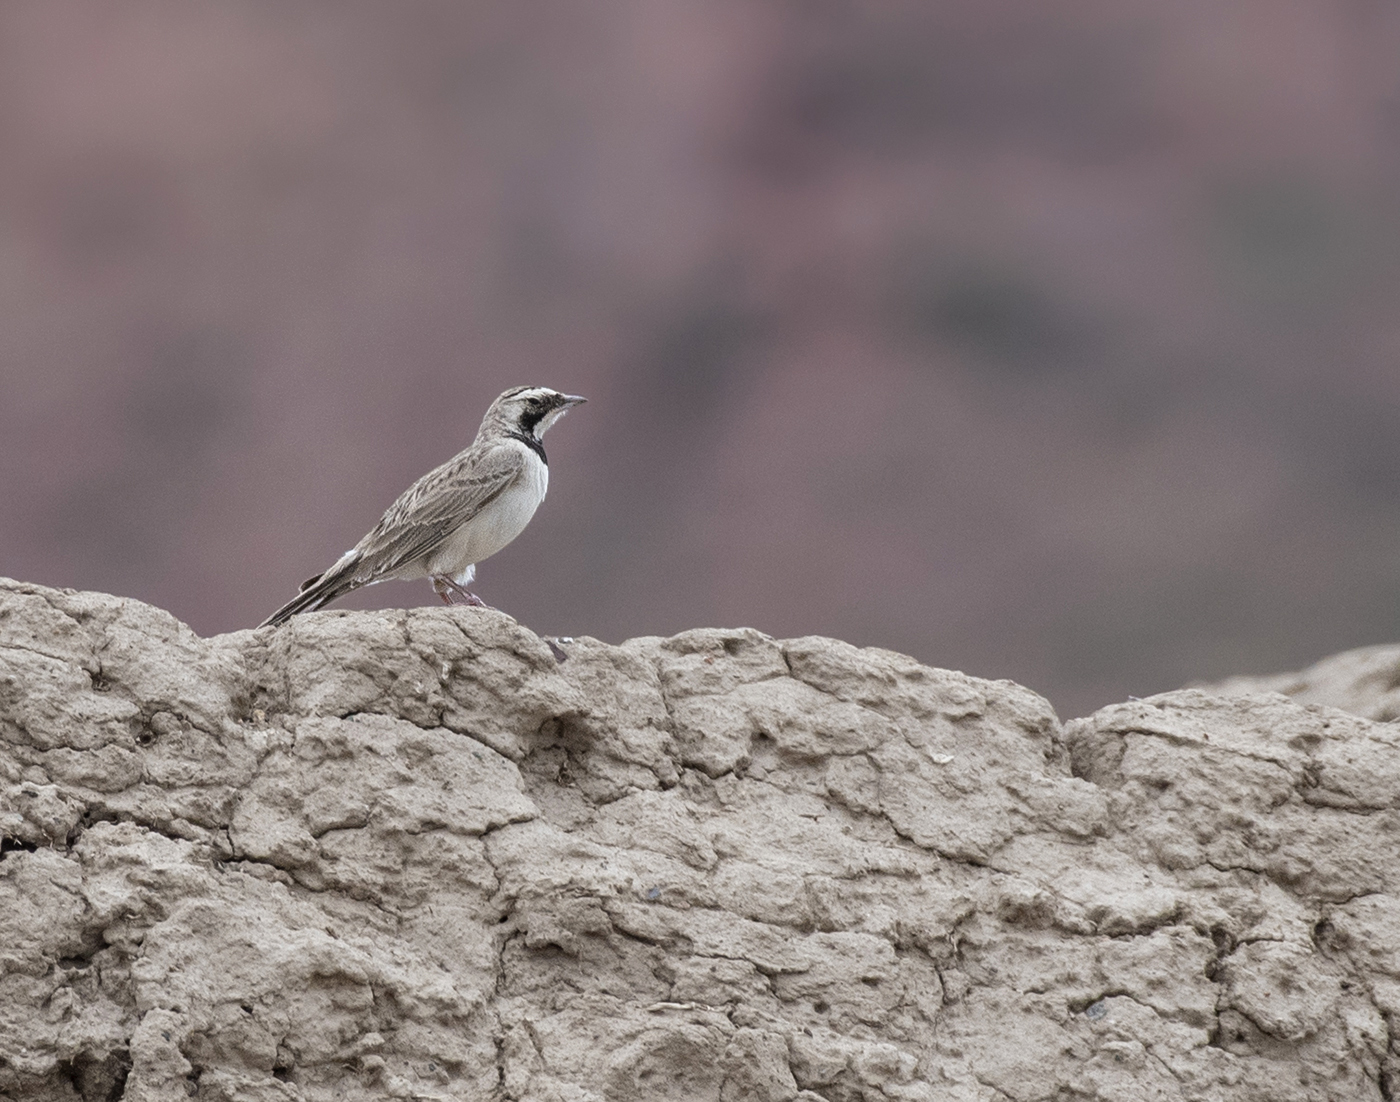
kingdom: Animalia
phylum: Chordata
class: Aves
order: Passeriformes
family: Alaudidae
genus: Eremophila
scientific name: Eremophila alpestris
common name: Horned lark
